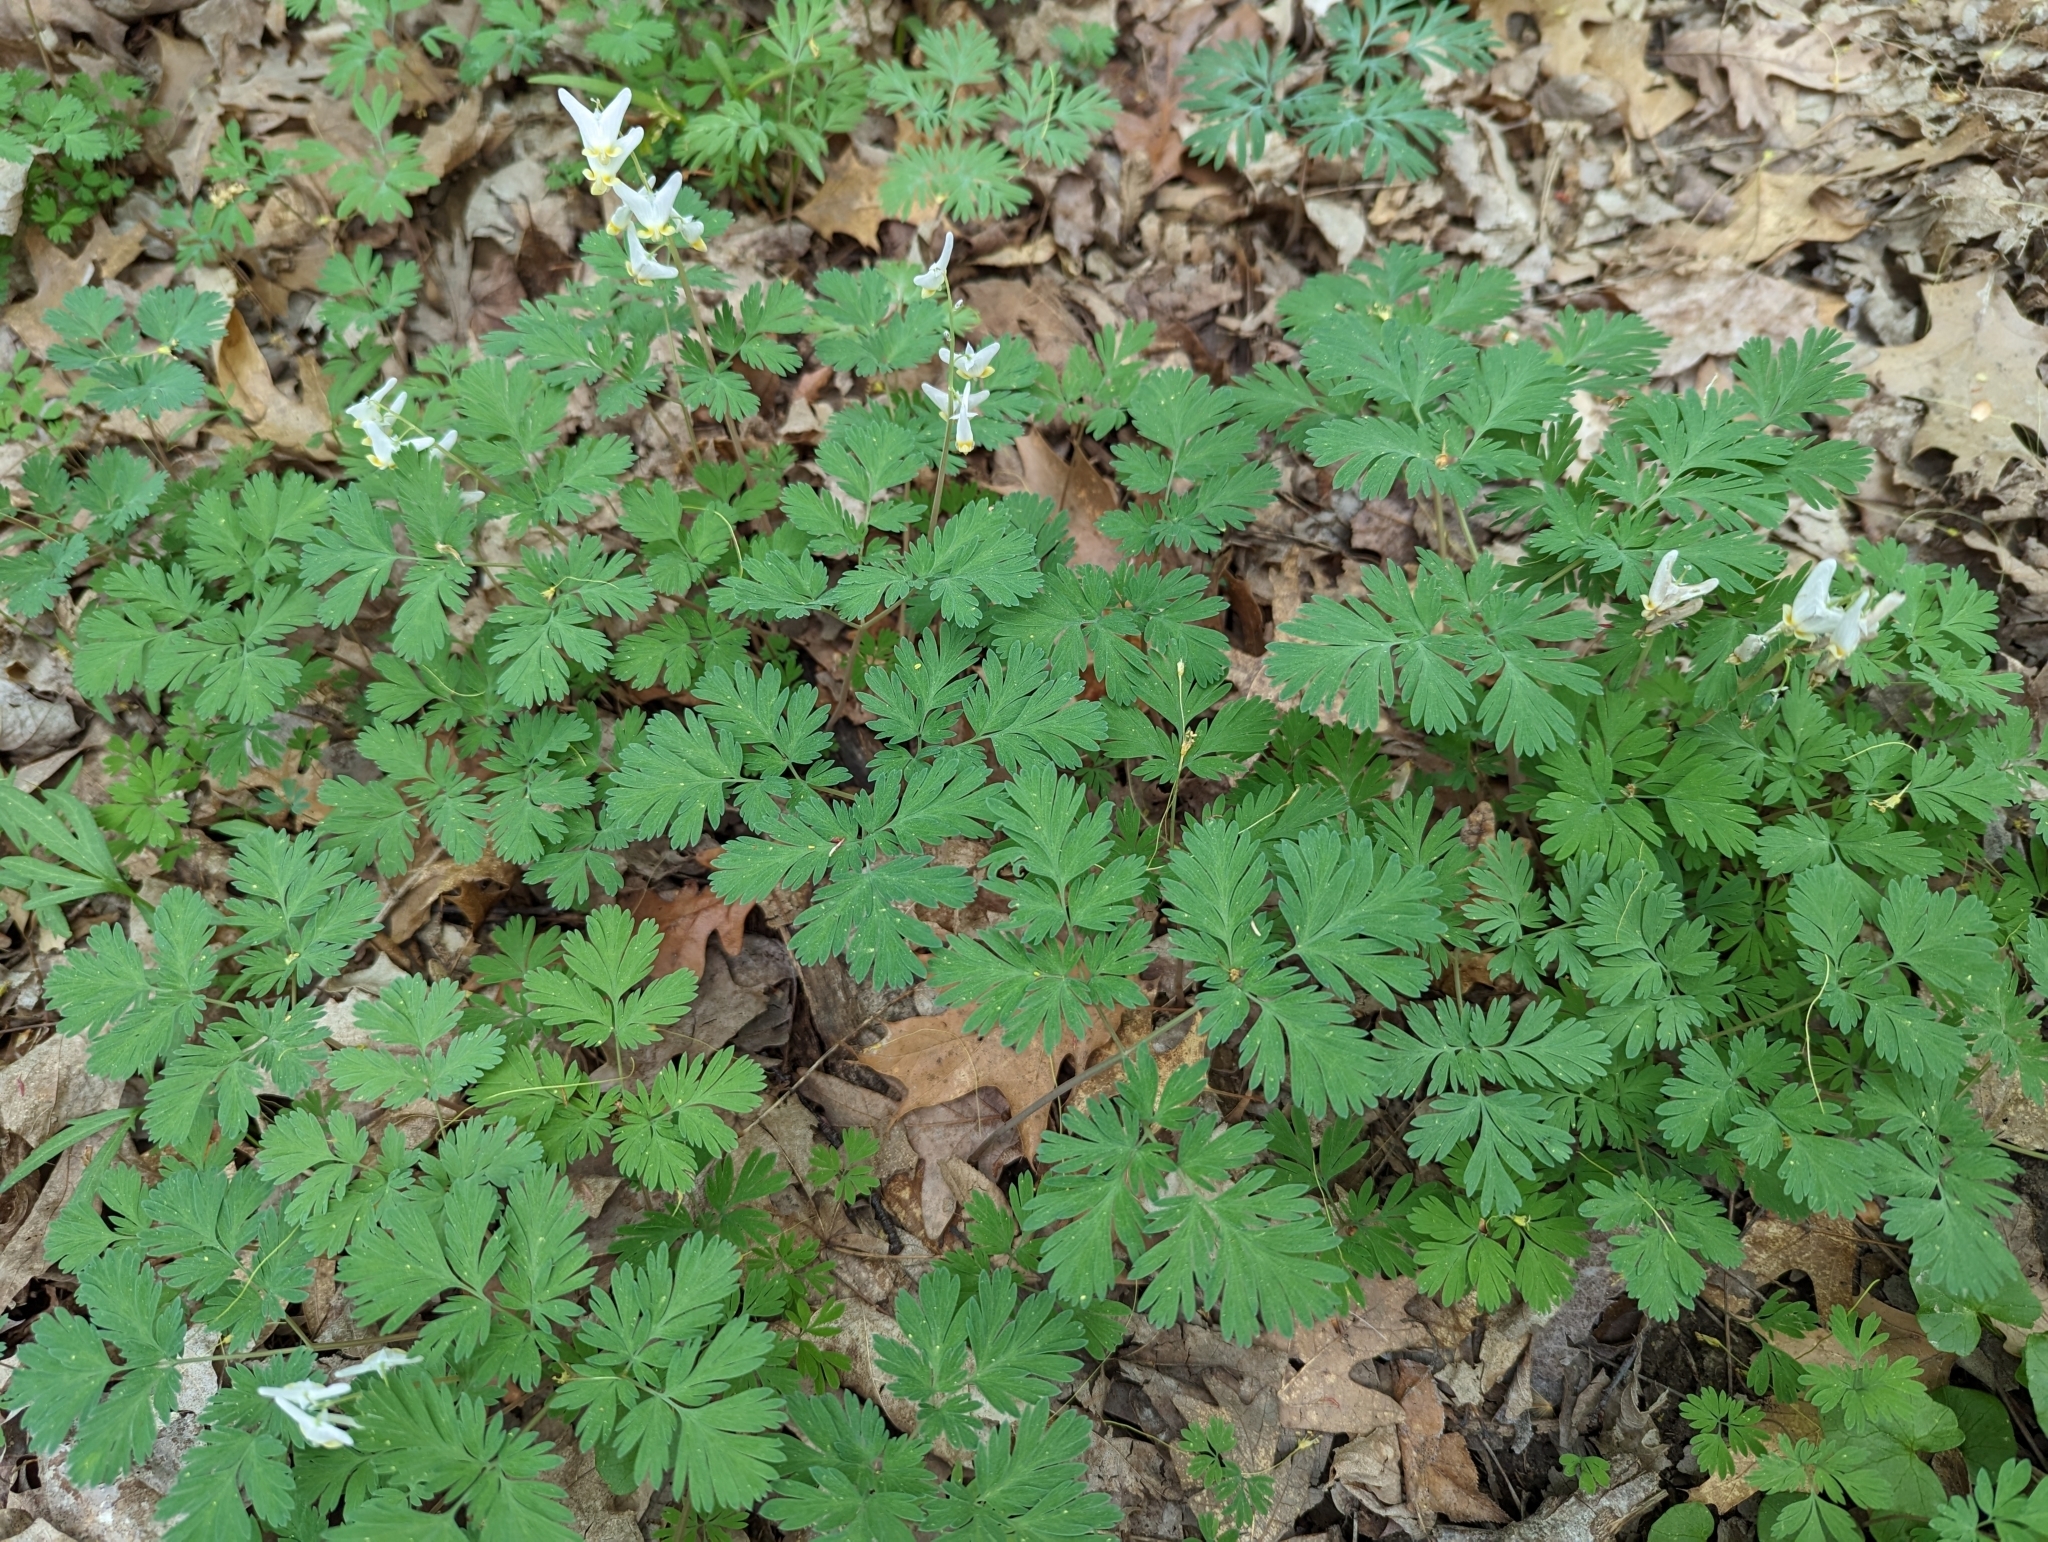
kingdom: Plantae
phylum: Tracheophyta
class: Magnoliopsida
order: Ranunculales
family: Papaveraceae
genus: Dicentra
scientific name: Dicentra cucullaria
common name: Dutchman's breeches
